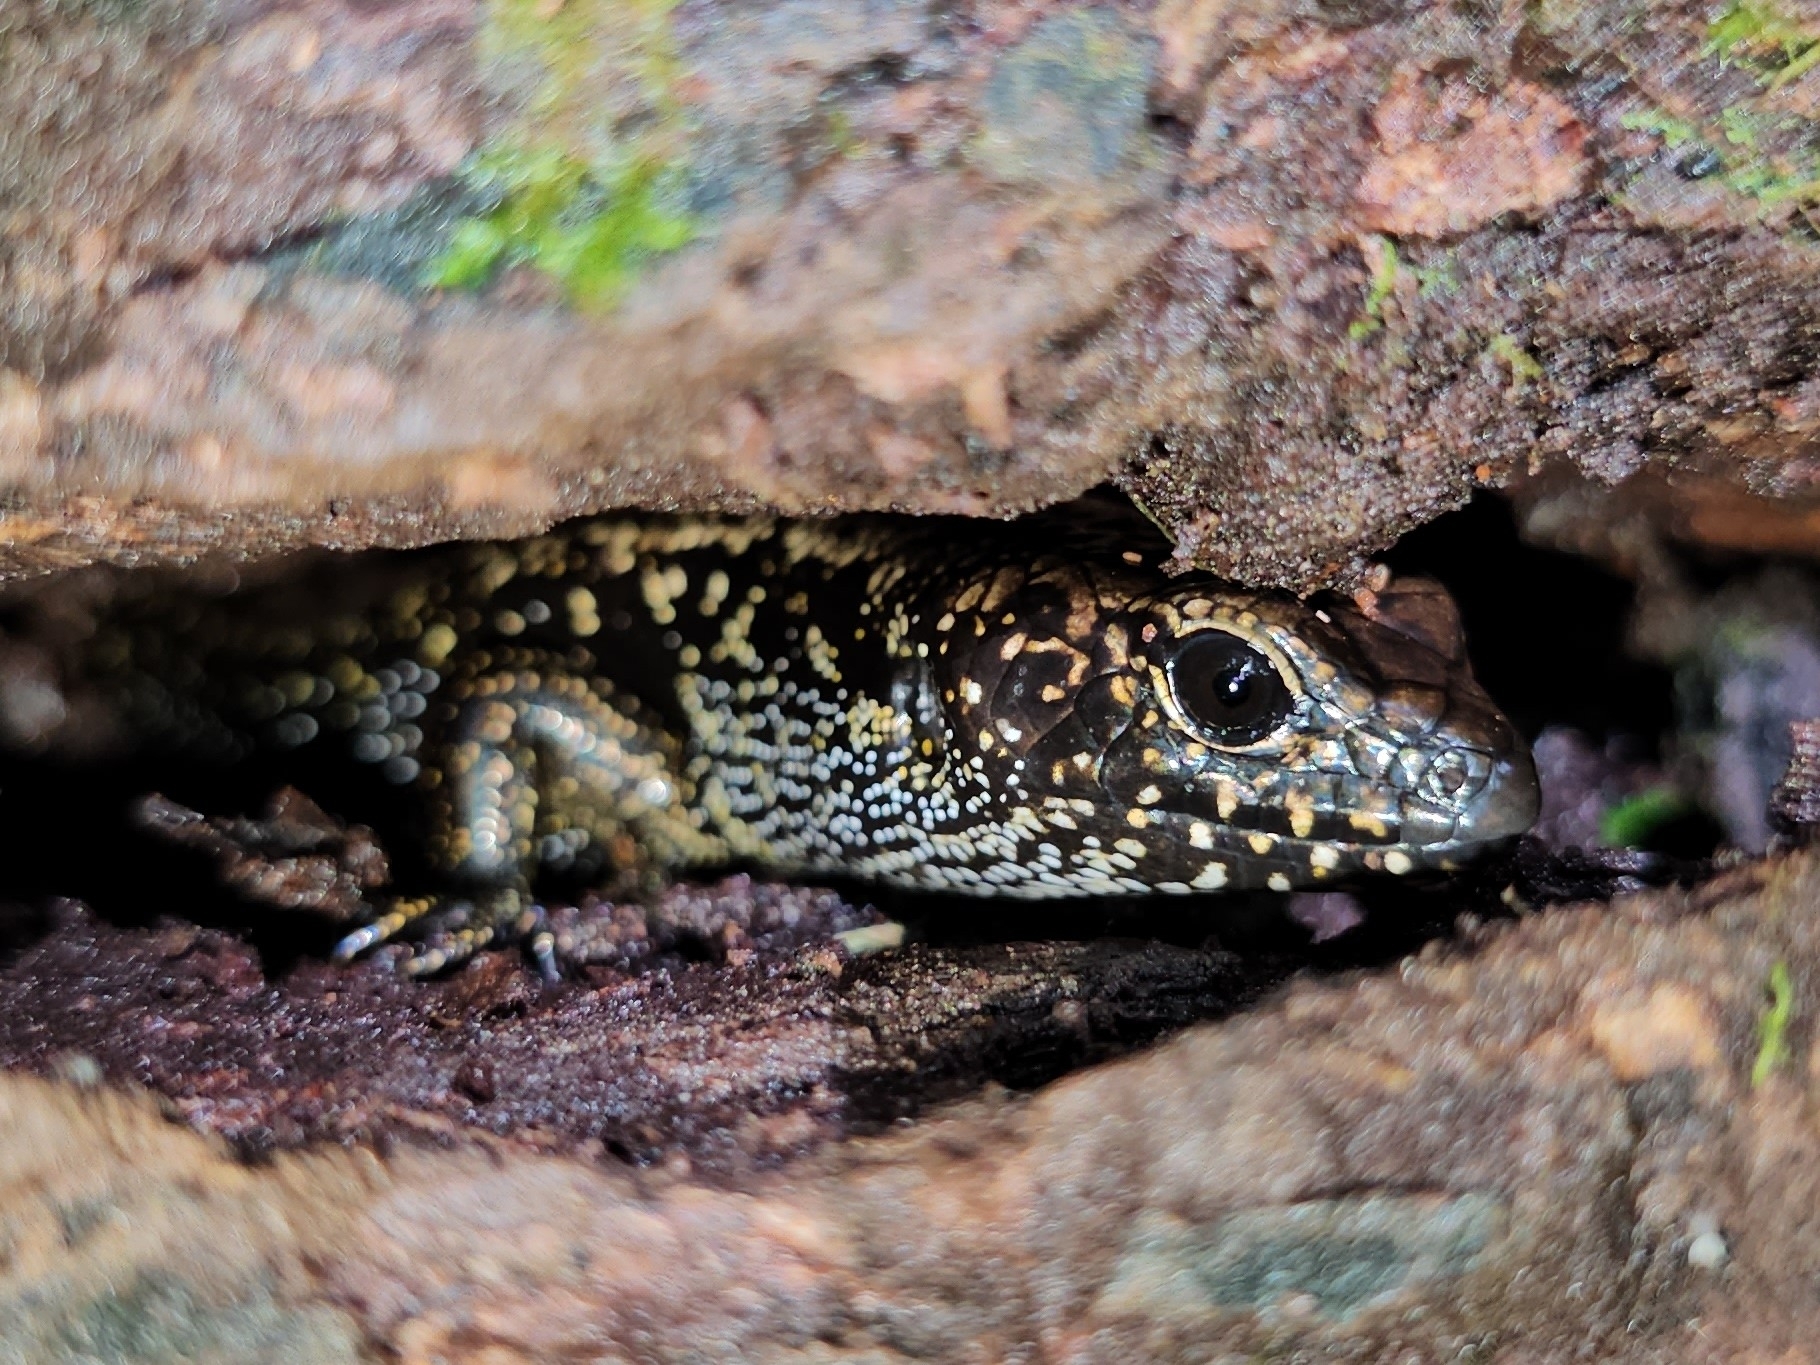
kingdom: Animalia
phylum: Chordata
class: Squamata
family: Scincidae
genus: Silvascincus
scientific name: Silvascincus murrayi
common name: Blue-speckled forest-skink
